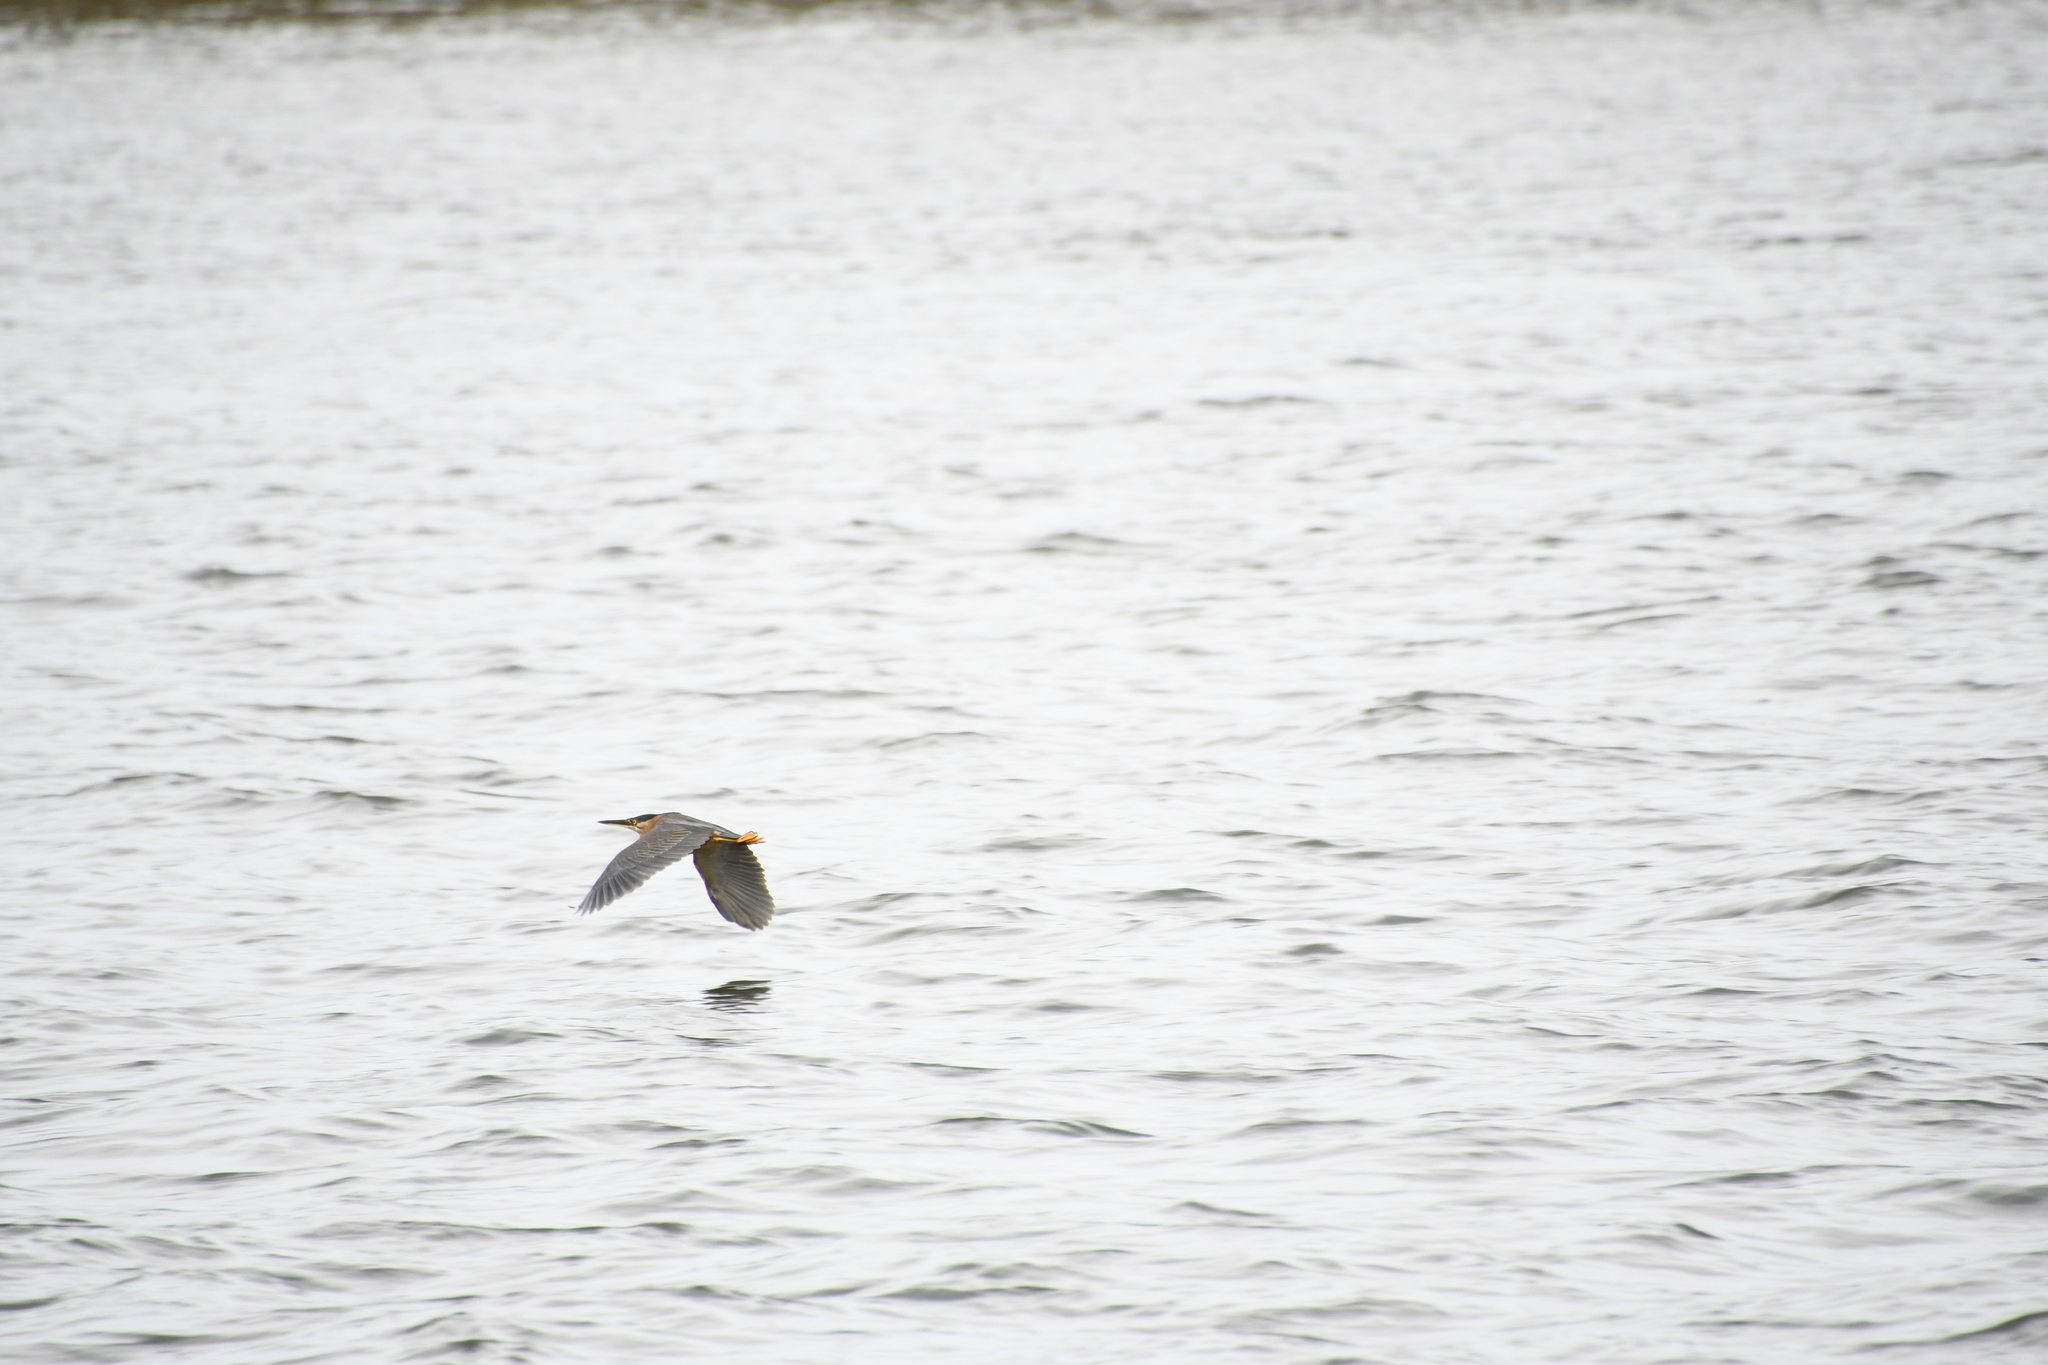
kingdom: Animalia
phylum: Chordata
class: Aves
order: Pelecaniformes
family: Ardeidae
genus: Butorides
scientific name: Butorides striata
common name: Striated heron
